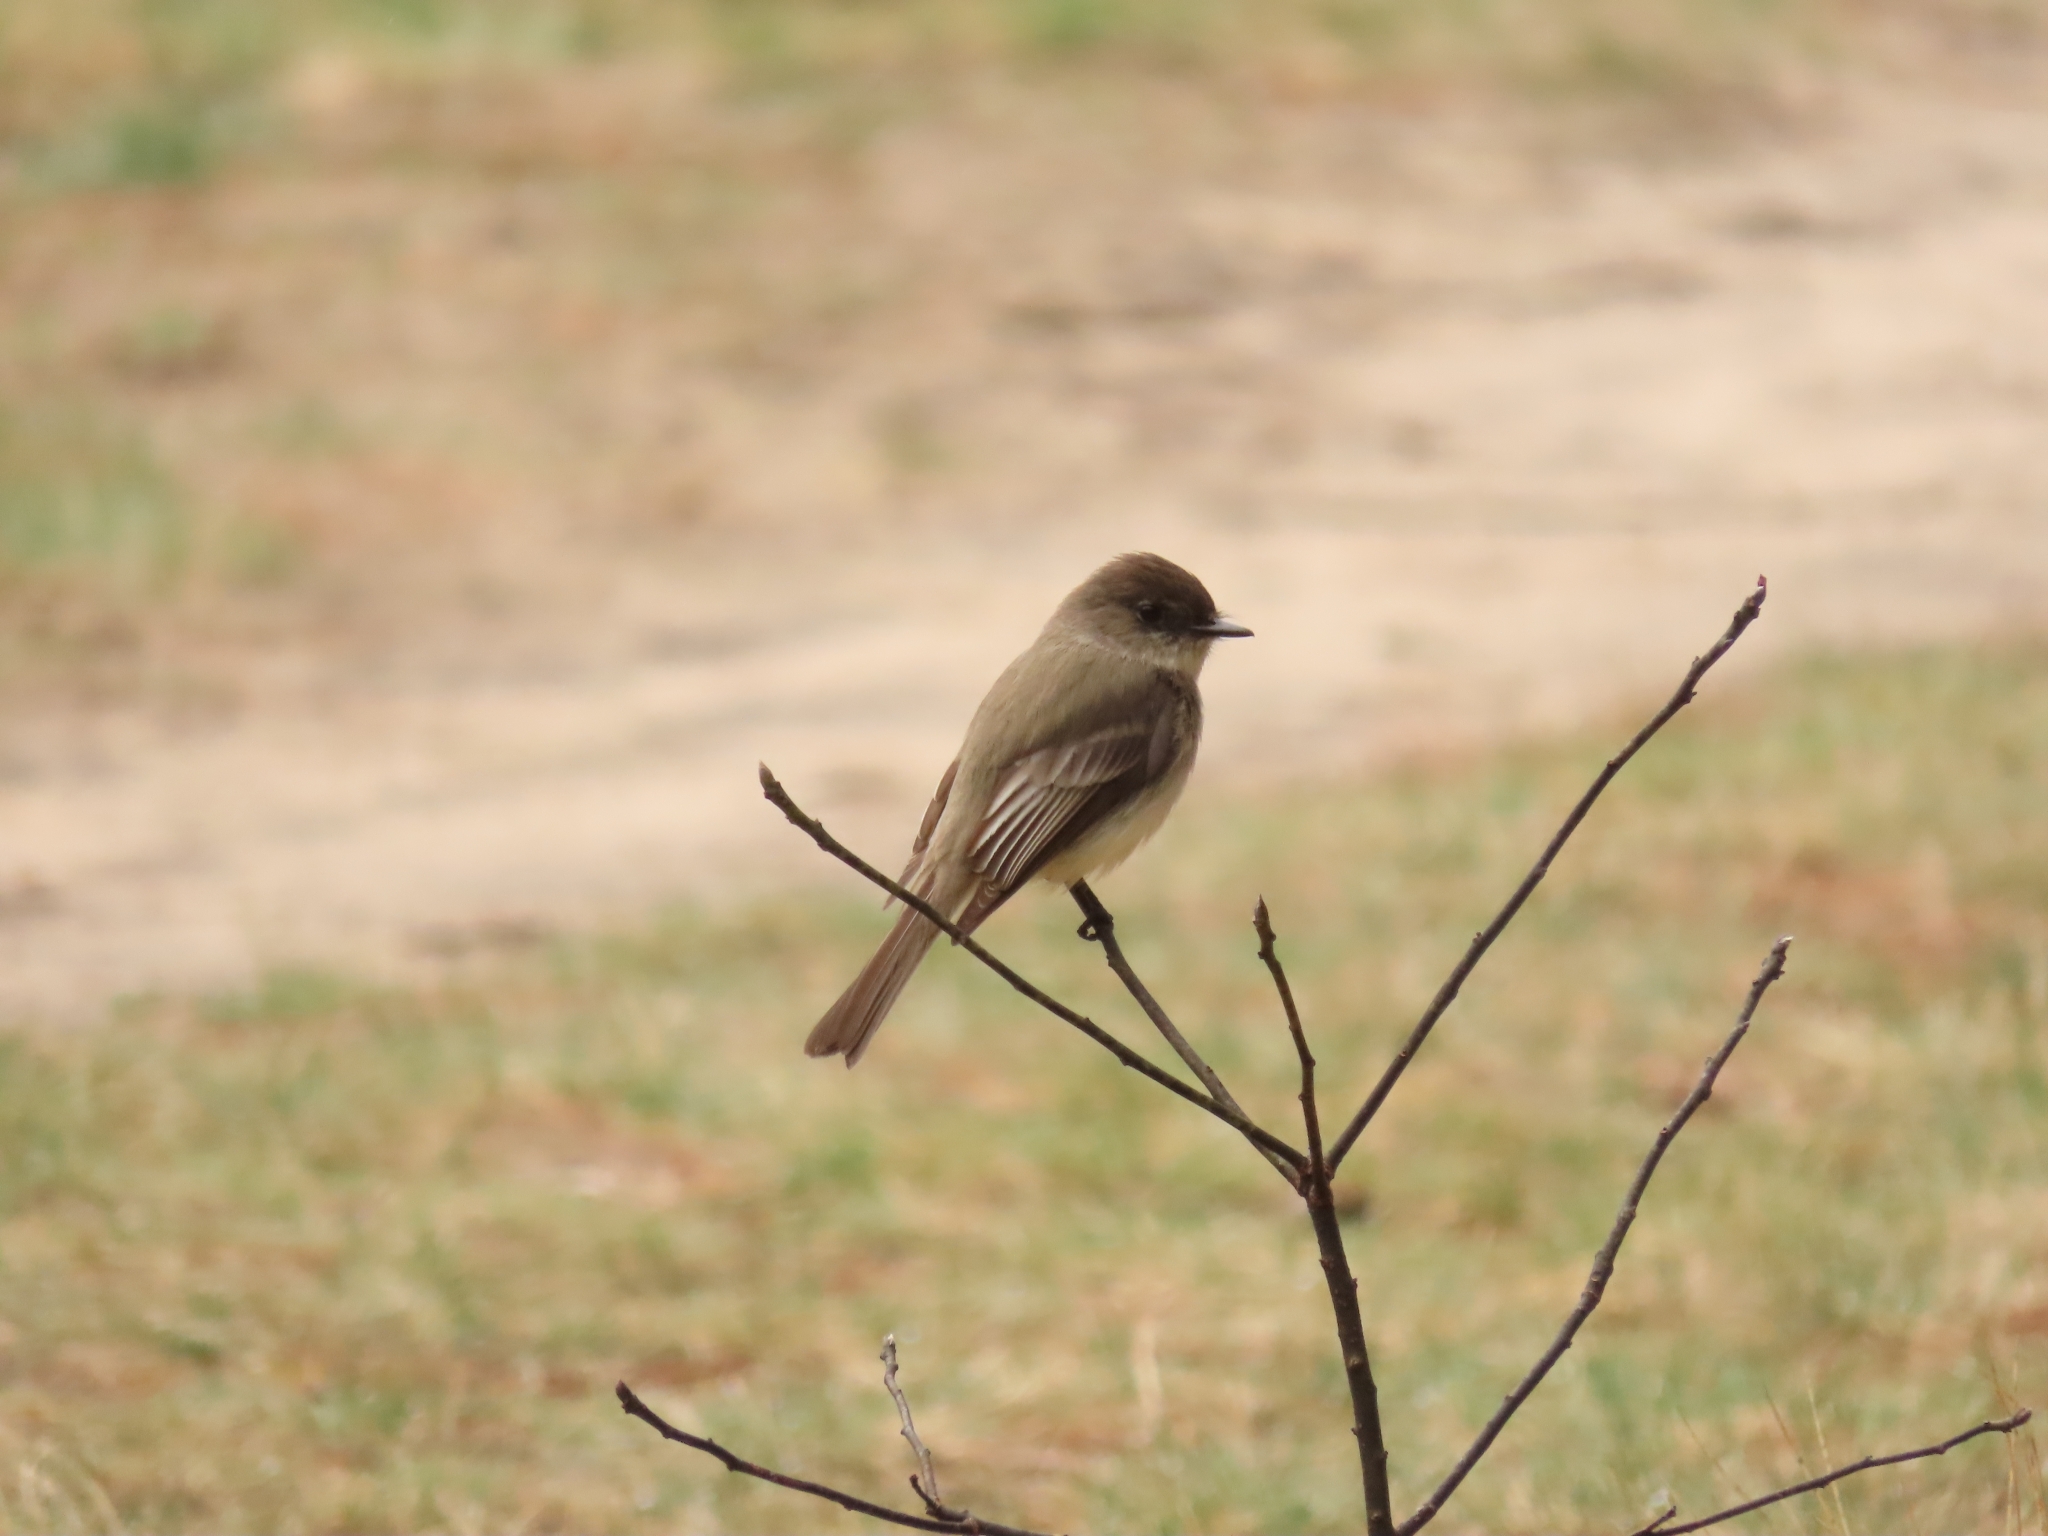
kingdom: Animalia
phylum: Chordata
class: Aves
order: Passeriformes
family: Tyrannidae
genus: Sayornis
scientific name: Sayornis phoebe
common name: Eastern phoebe
